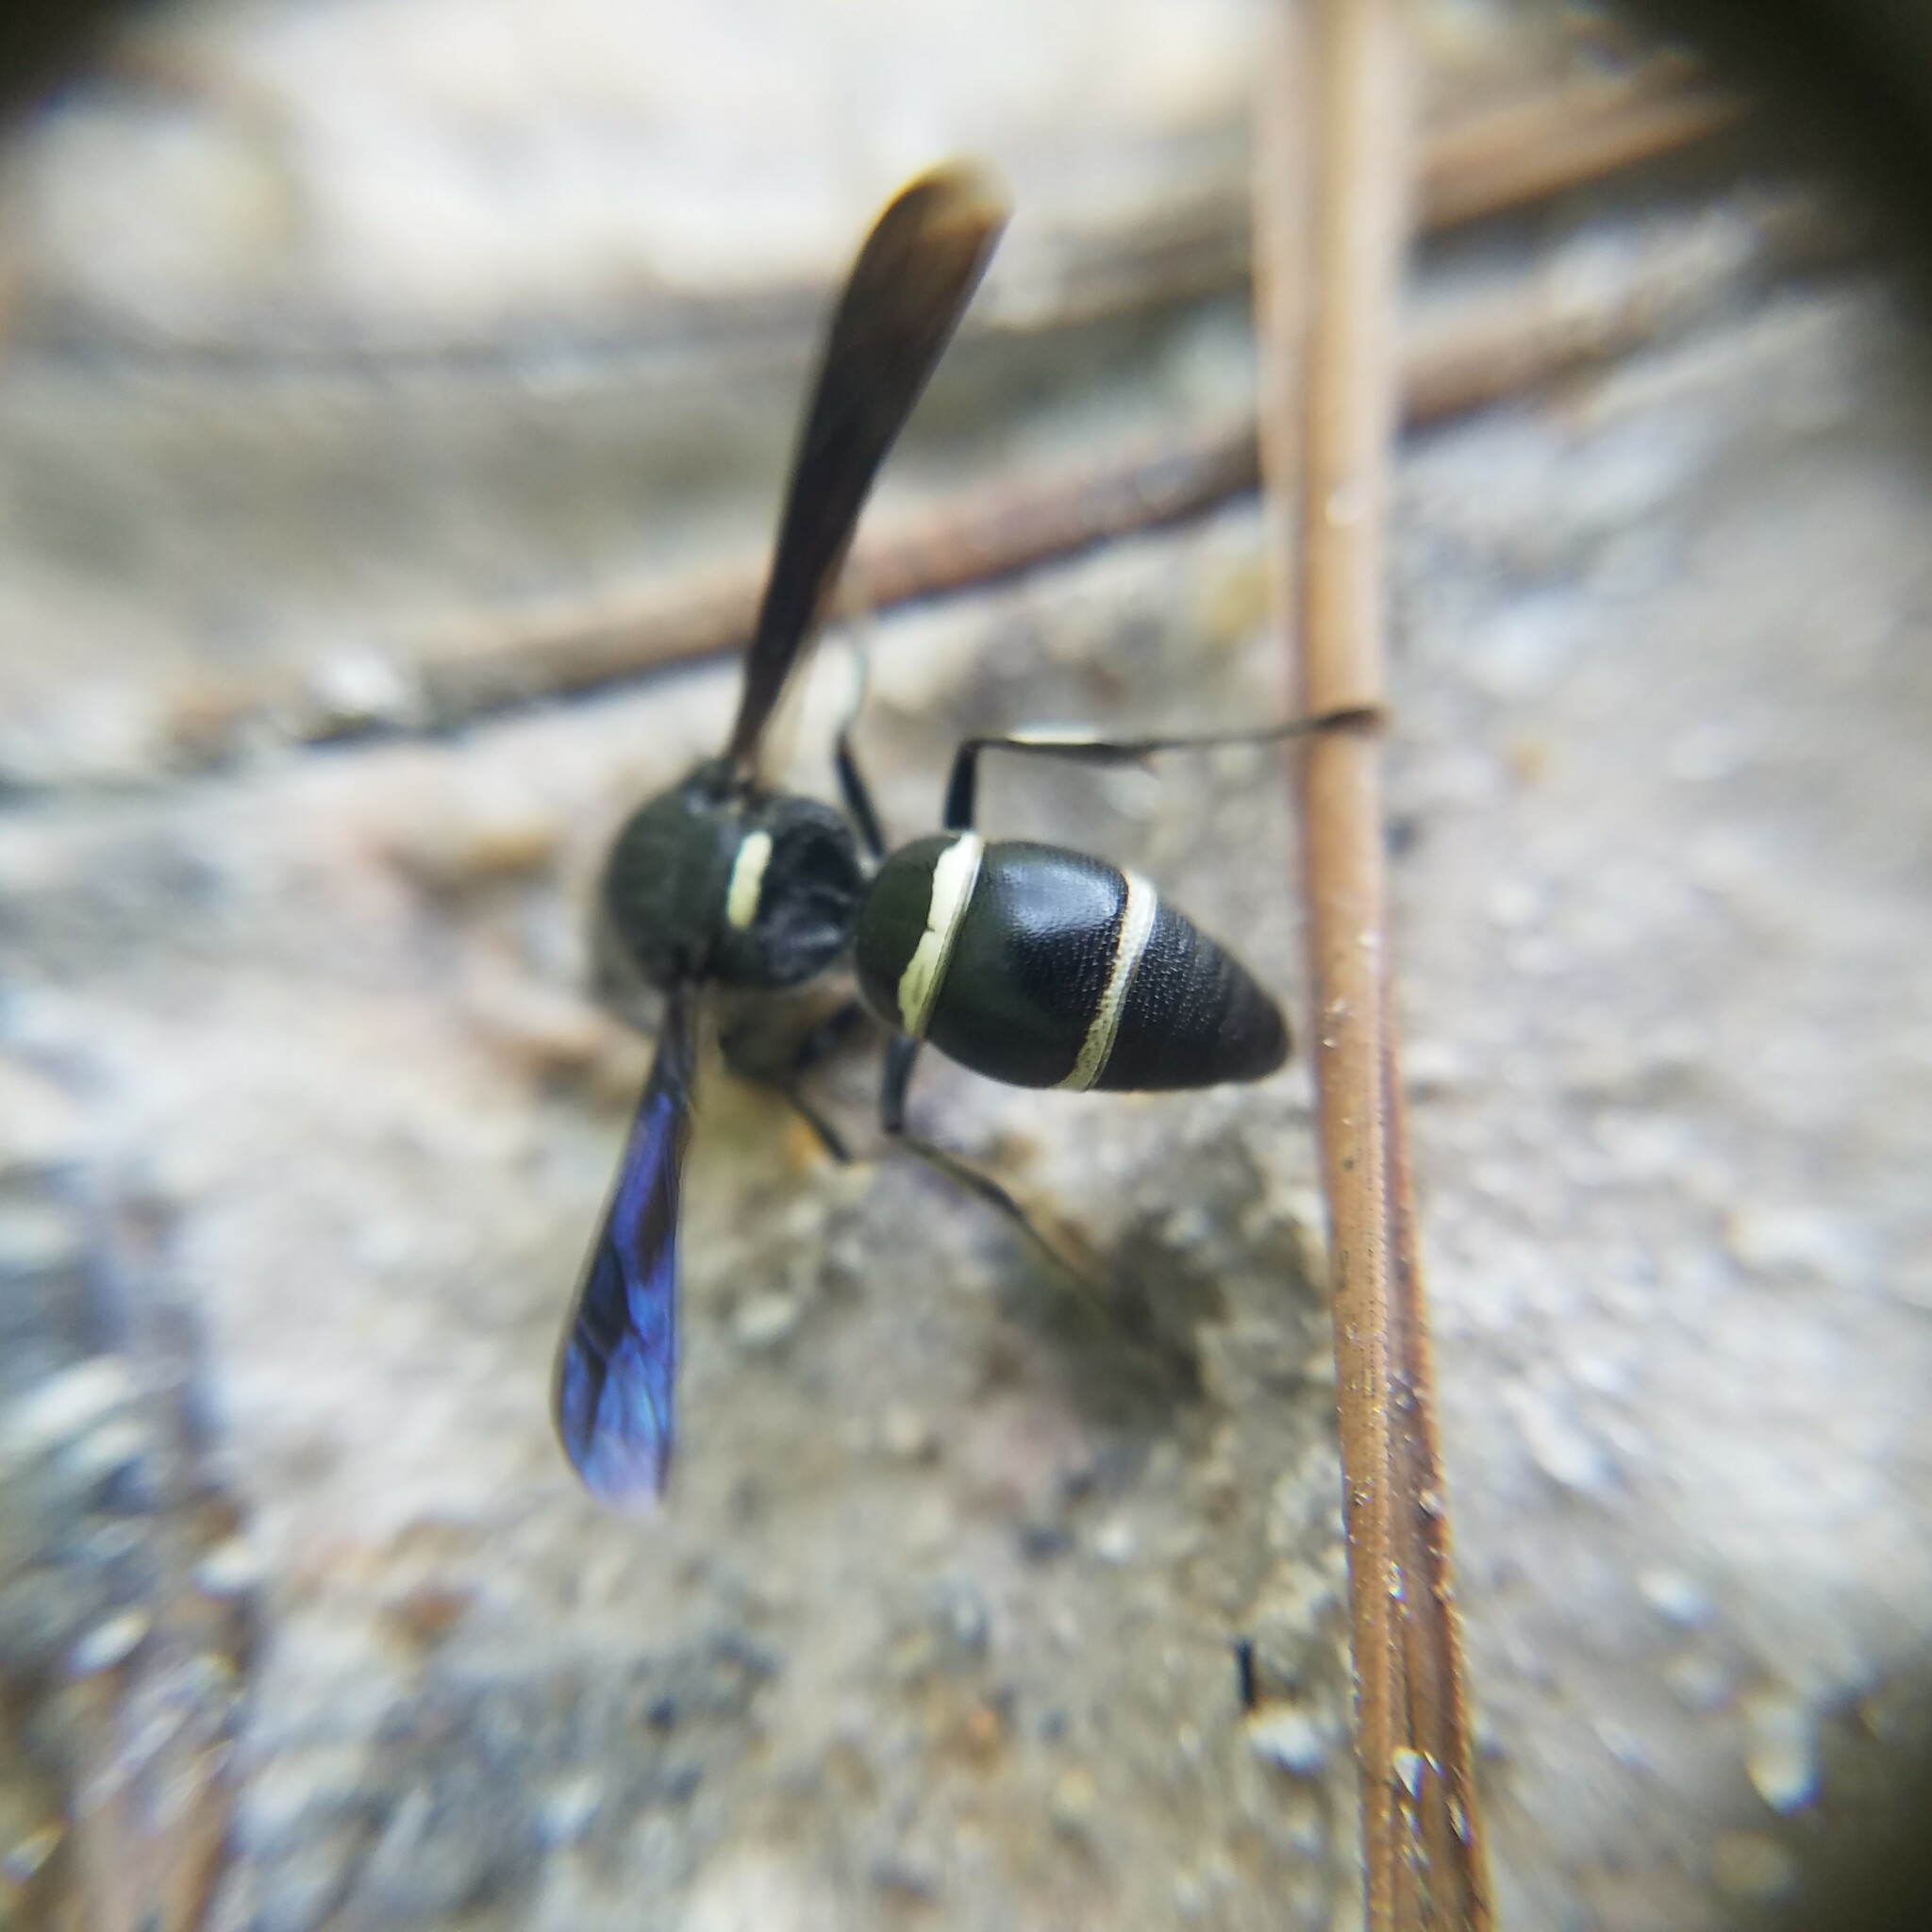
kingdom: Animalia
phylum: Arthropoda
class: Insecta
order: Hymenoptera
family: Eumenidae
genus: Euodynerus
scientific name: Euodynerus schwarzi
